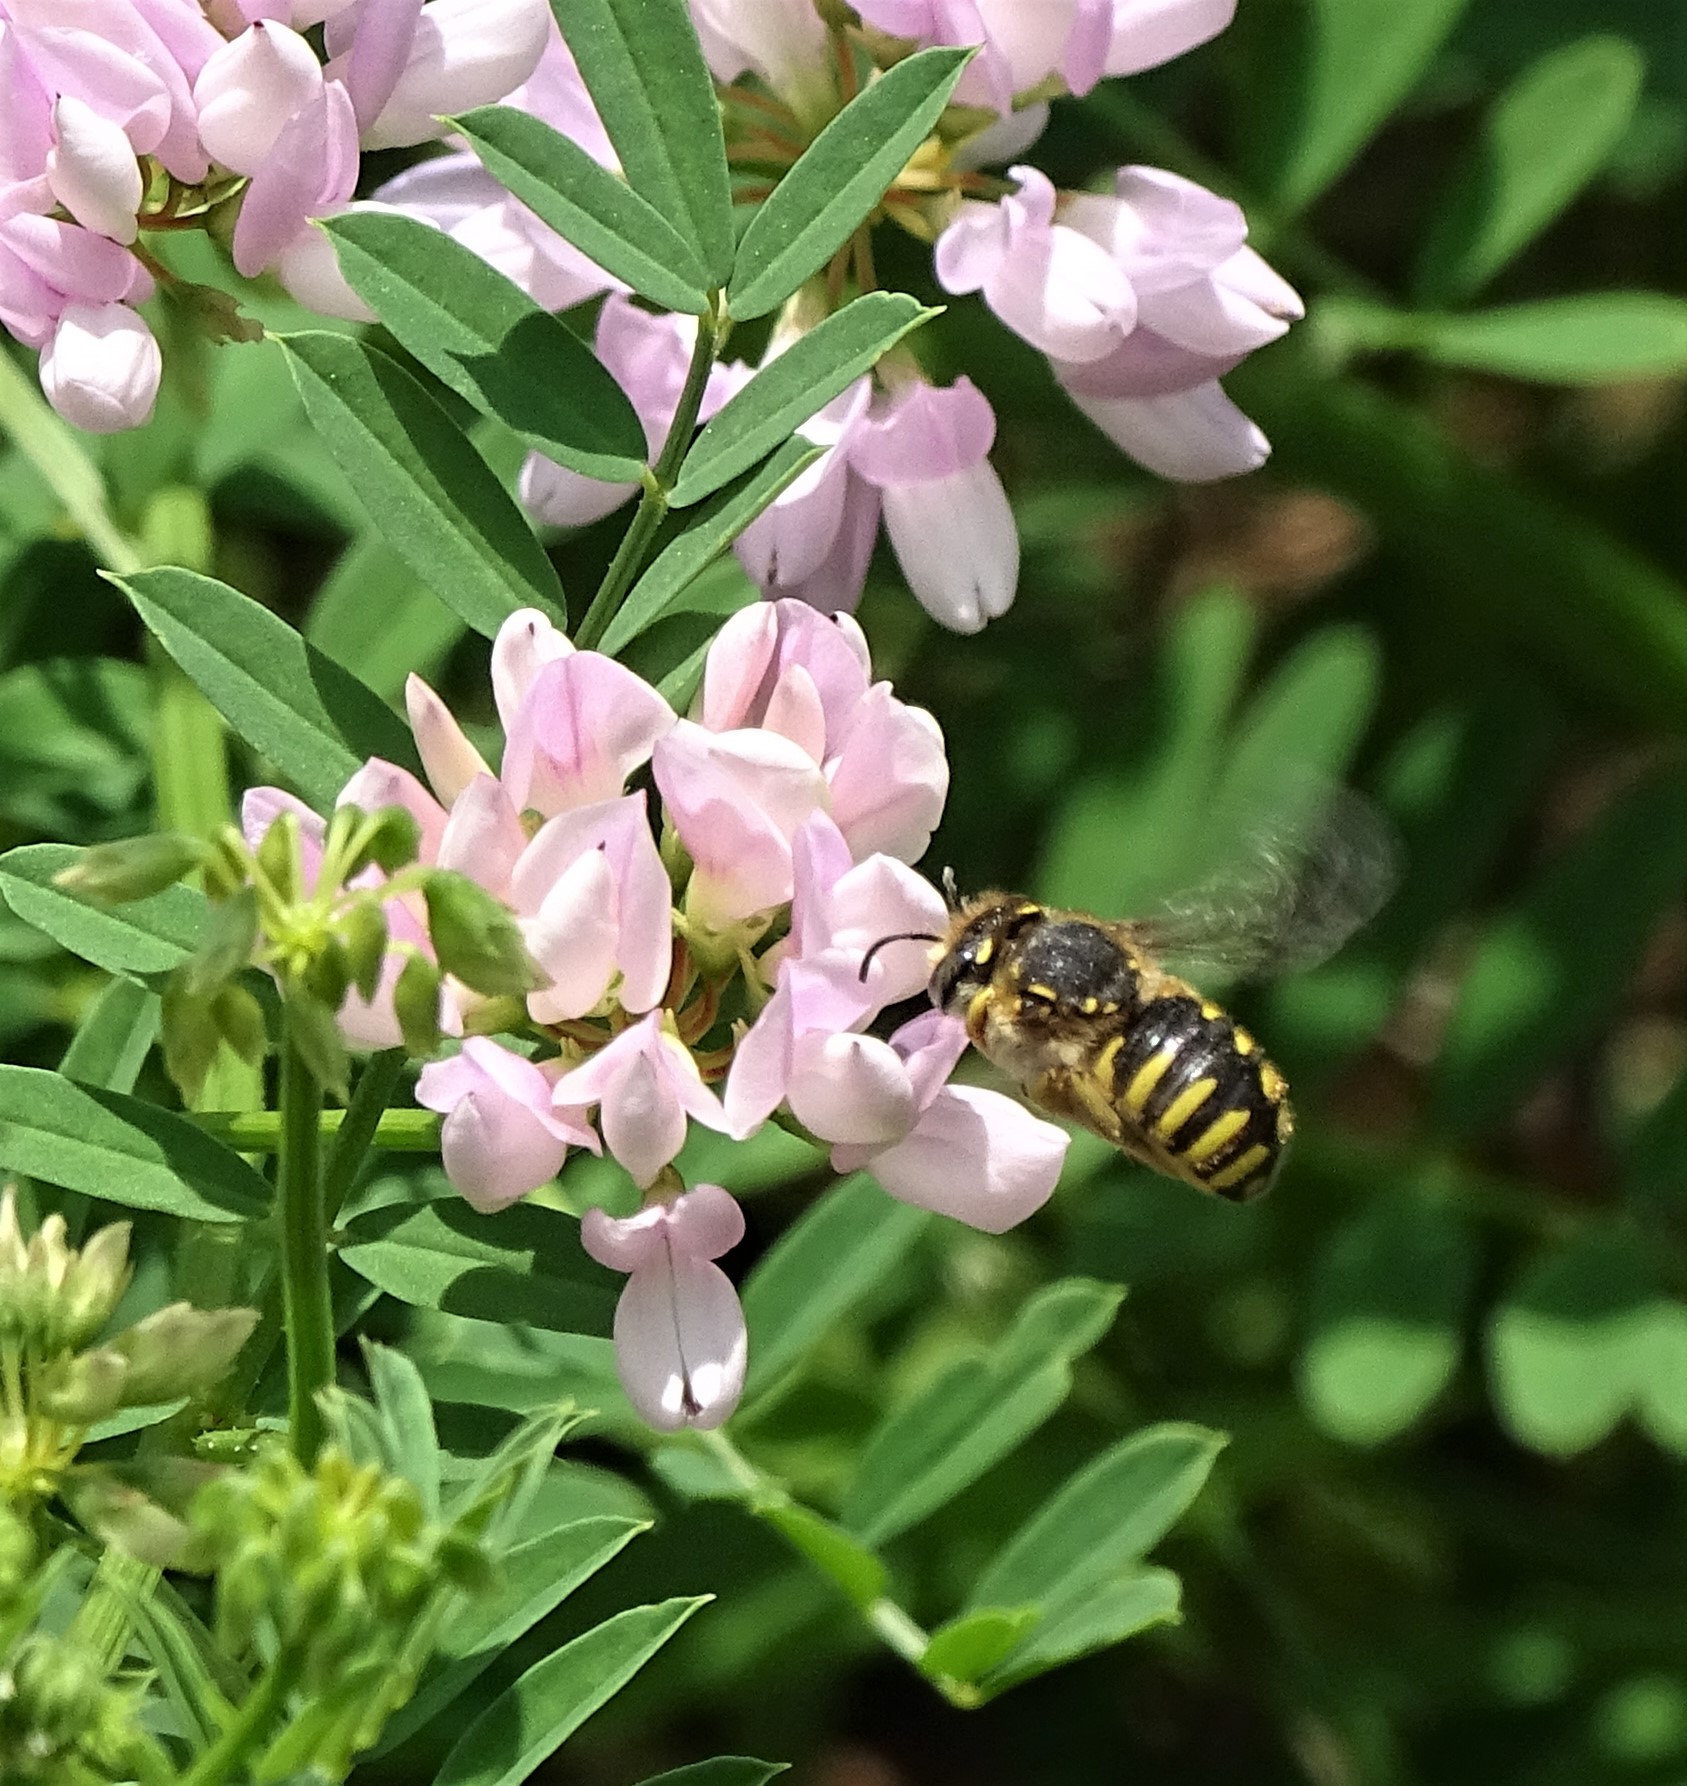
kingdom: Animalia
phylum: Arthropoda
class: Insecta
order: Hymenoptera
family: Megachilidae
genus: Anthidium
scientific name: Anthidium manicatum
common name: Wool carder bee
